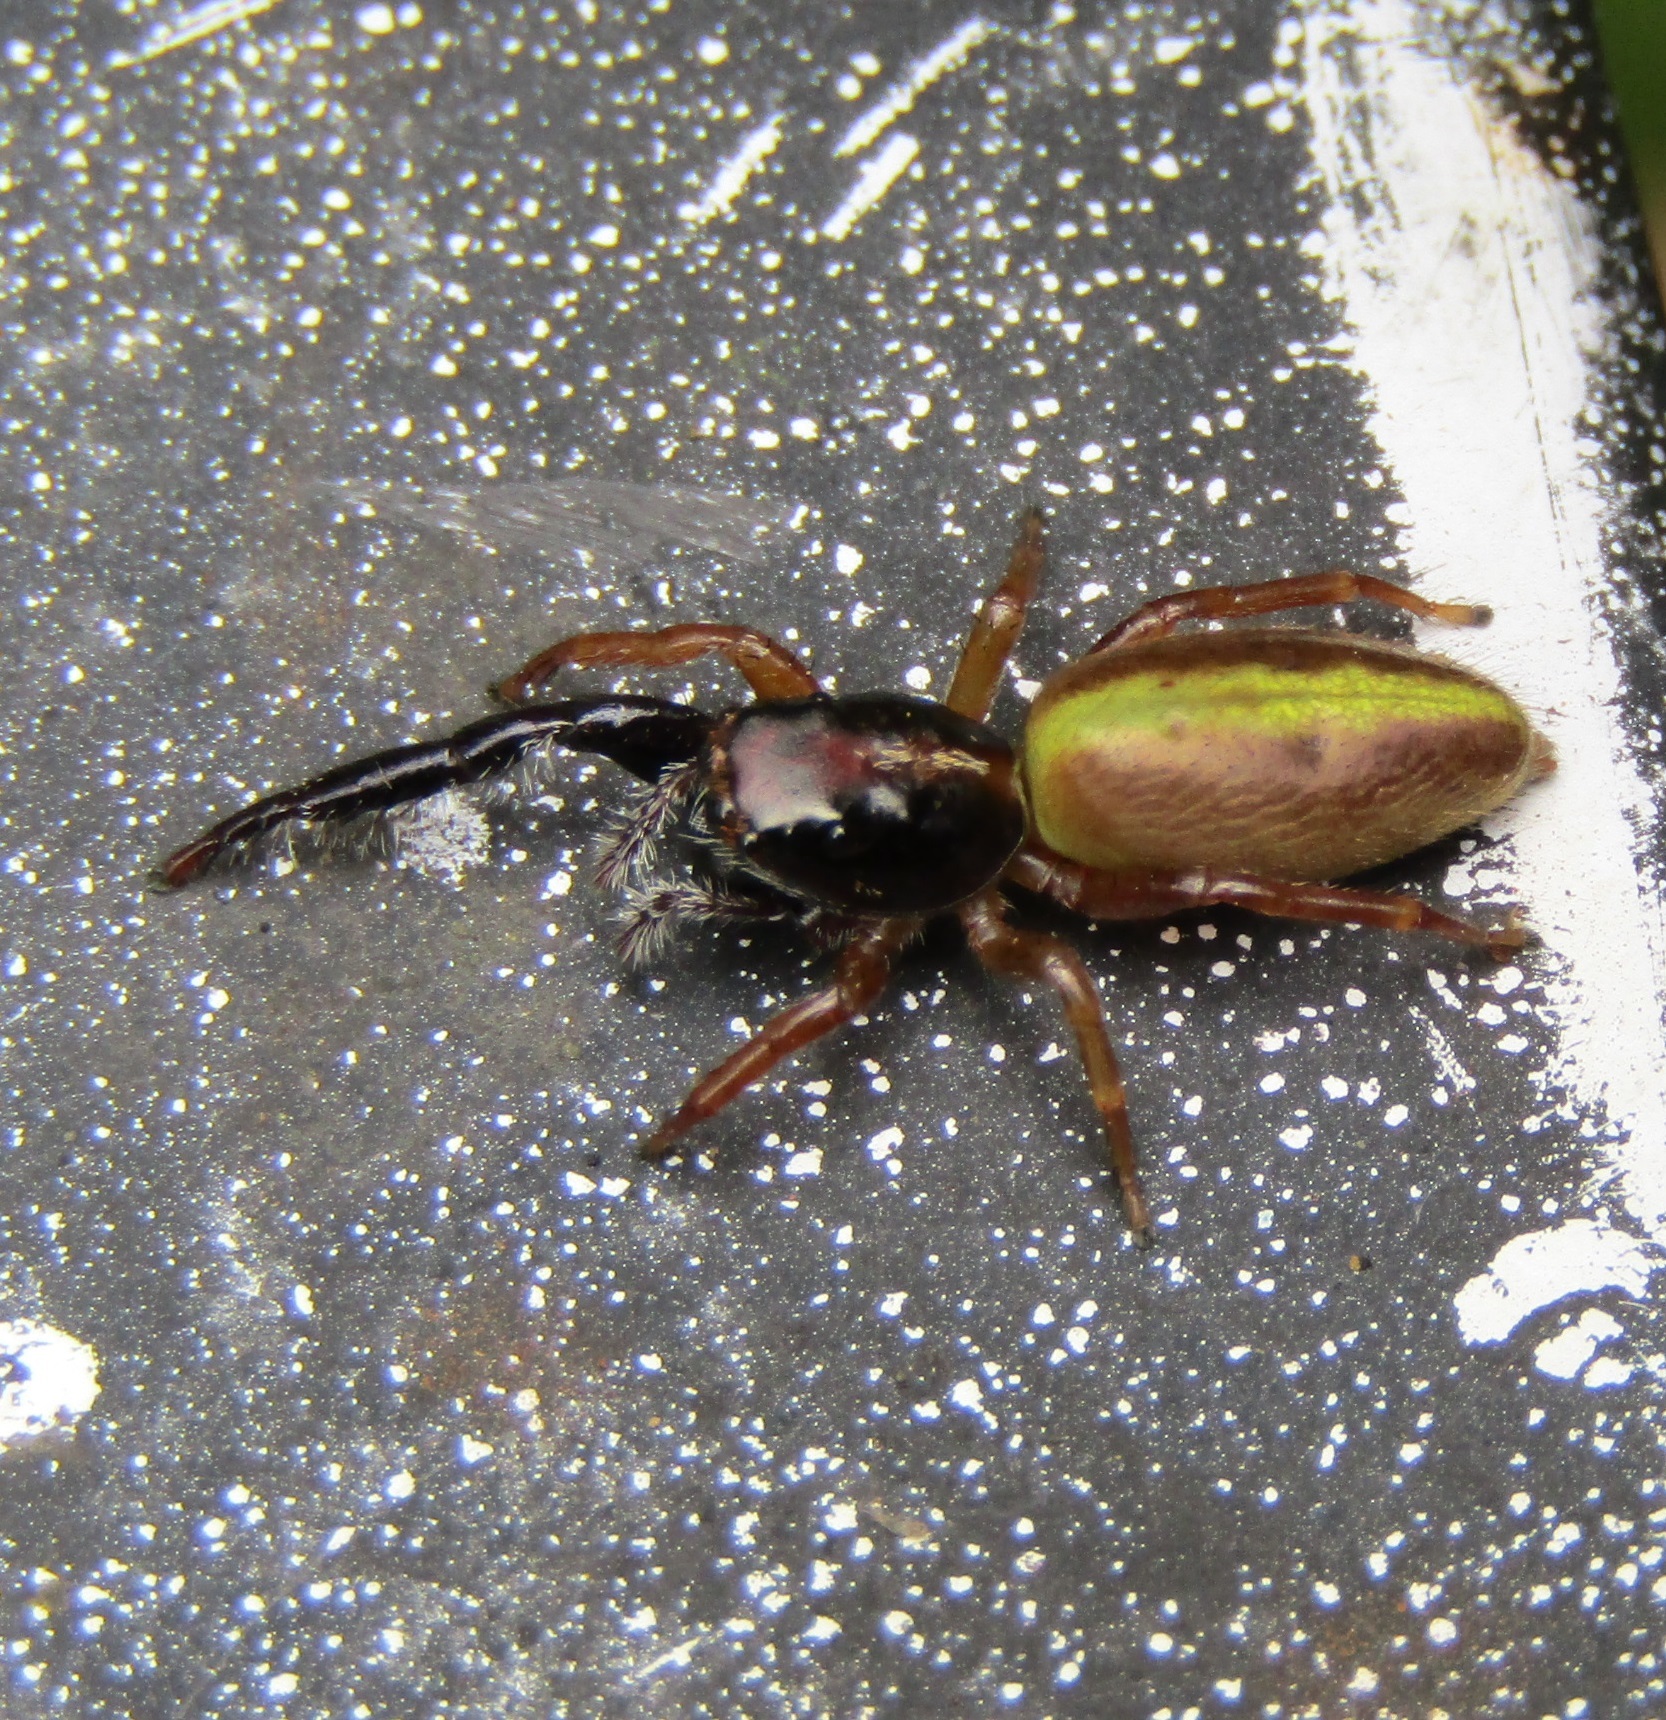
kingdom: Animalia
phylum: Arthropoda
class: Arachnida
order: Araneae
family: Salticidae
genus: Trite
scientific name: Trite planiceps
